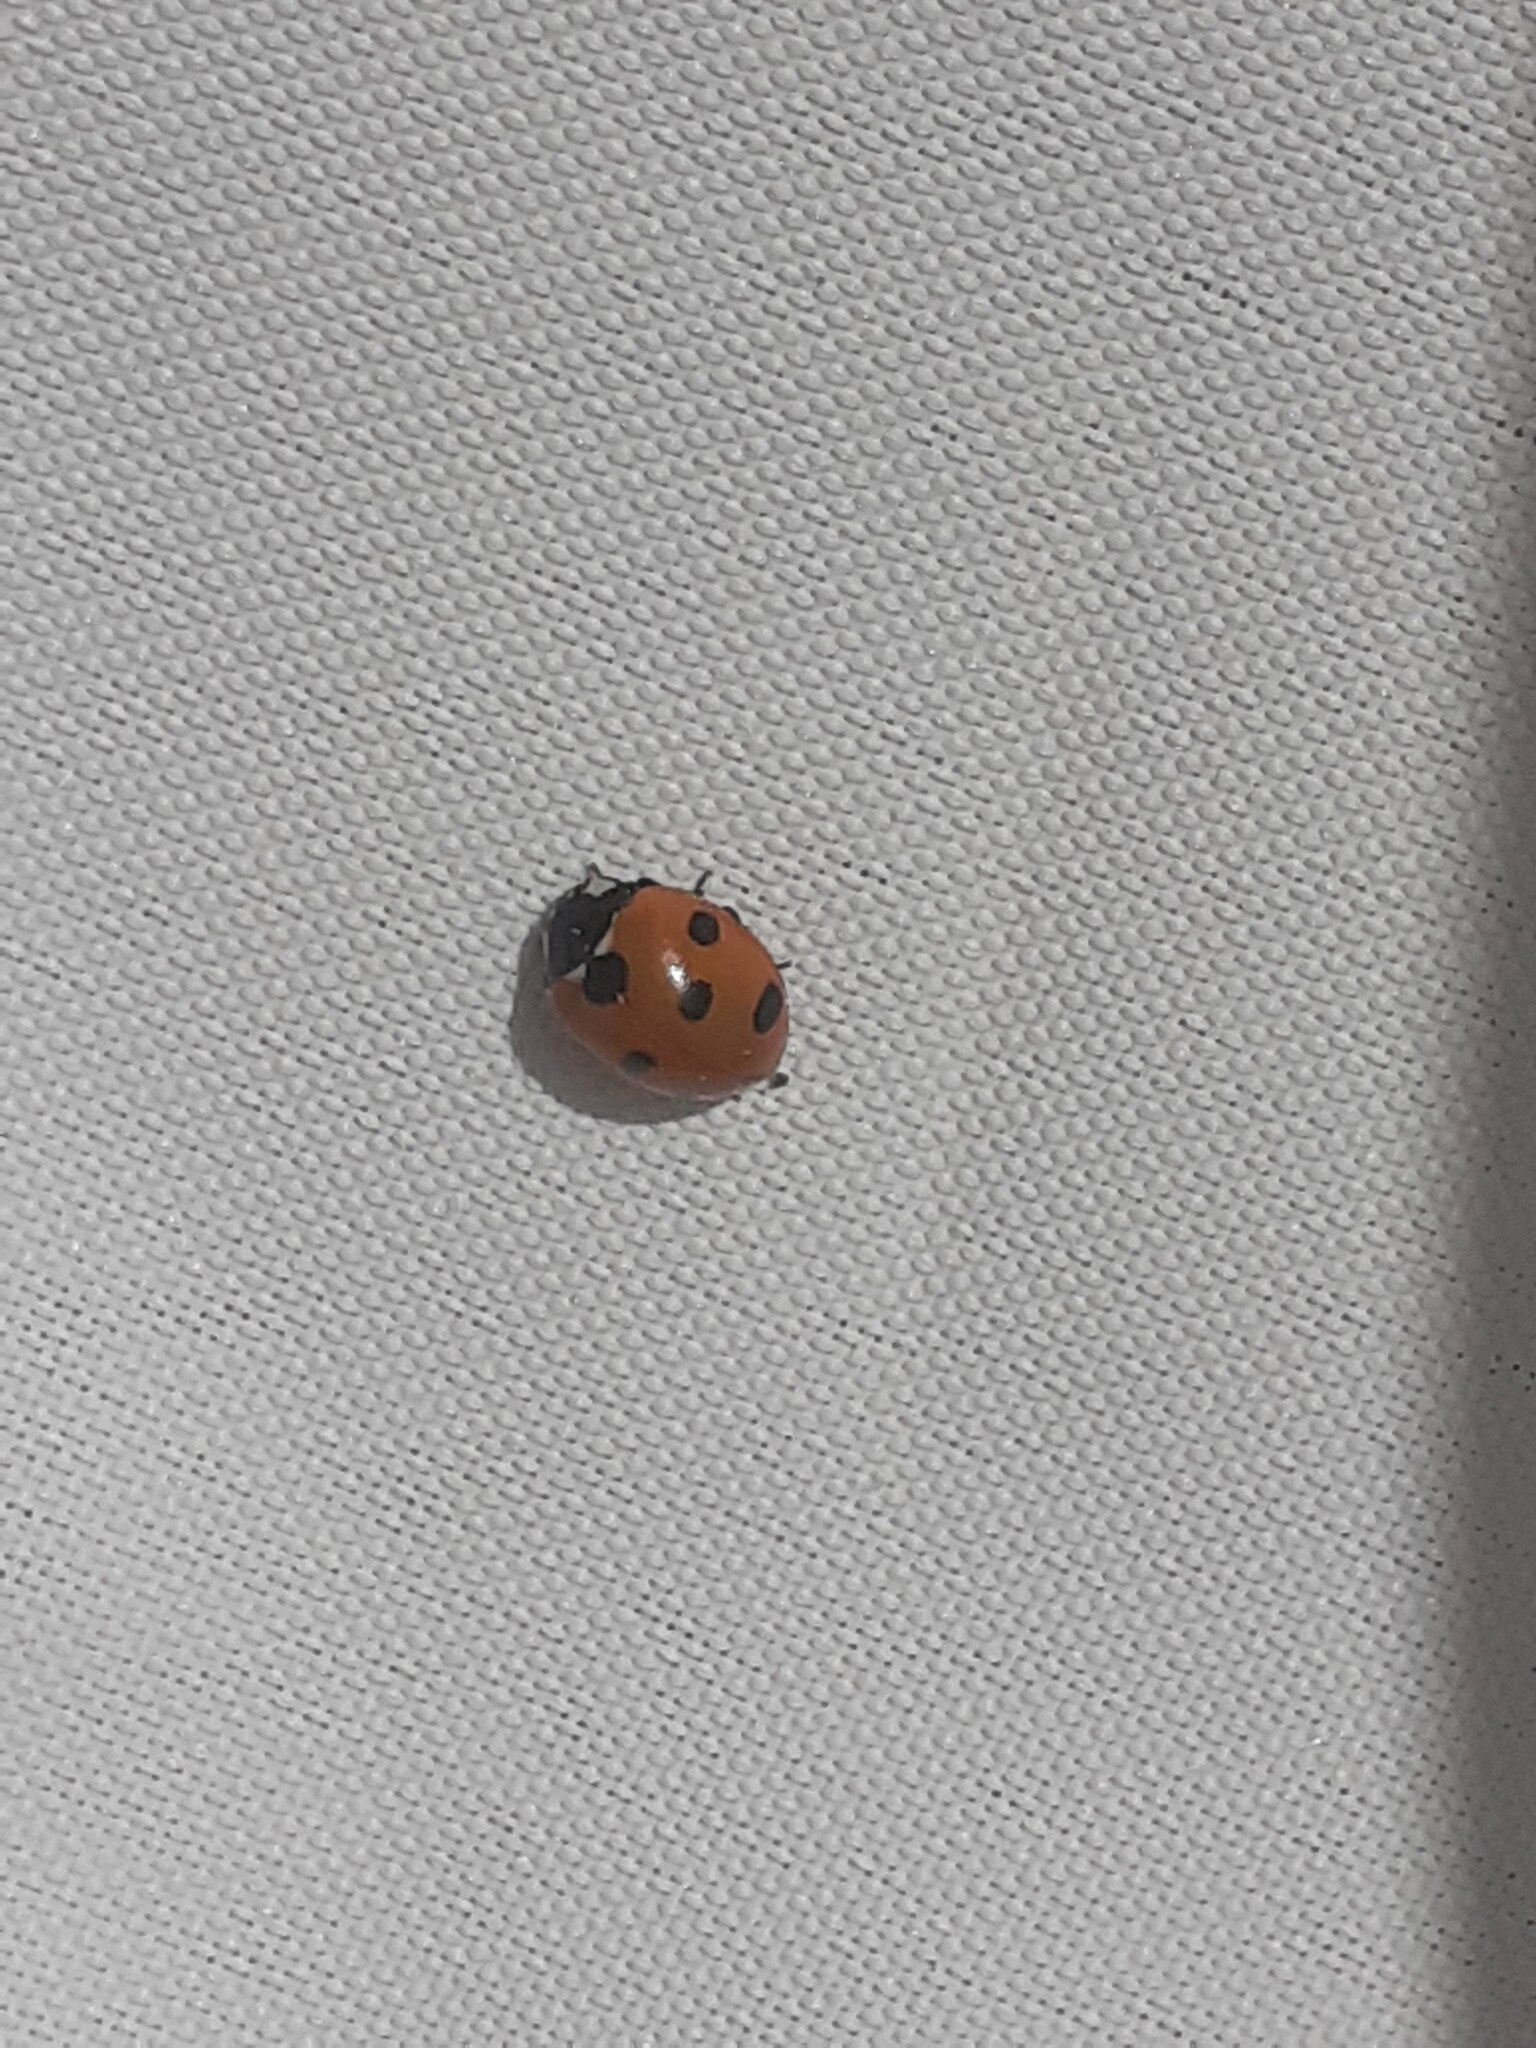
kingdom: Animalia
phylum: Arthropoda
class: Insecta
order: Coleoptera
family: Coccinellidae
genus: Coccinella
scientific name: Coccinella algerica
